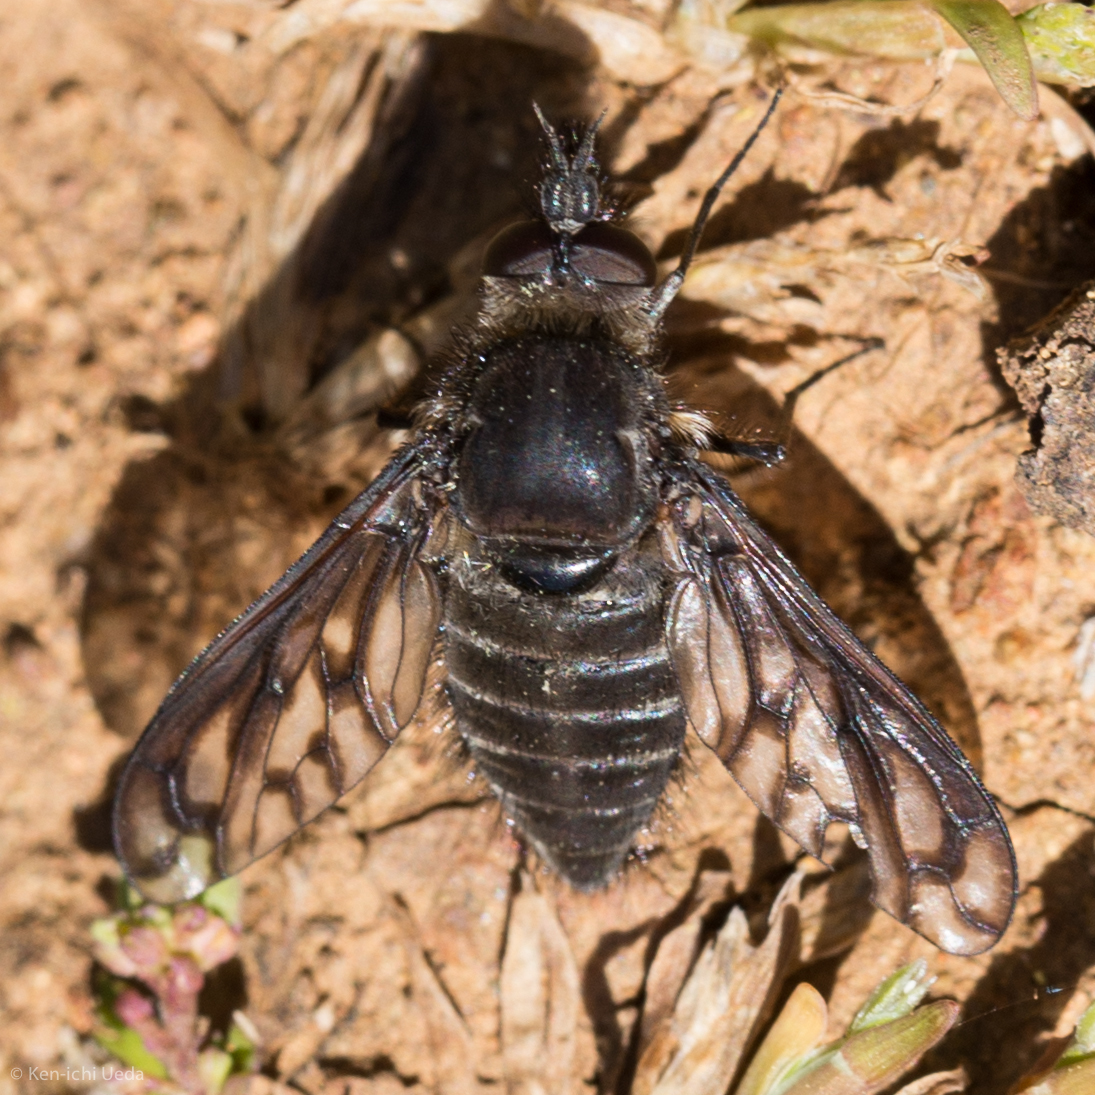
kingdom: Animalia
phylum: Arthropoda
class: Insecta
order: Diptera
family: Bombyliidae
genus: Conophorus
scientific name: Conophorus fenestratus
